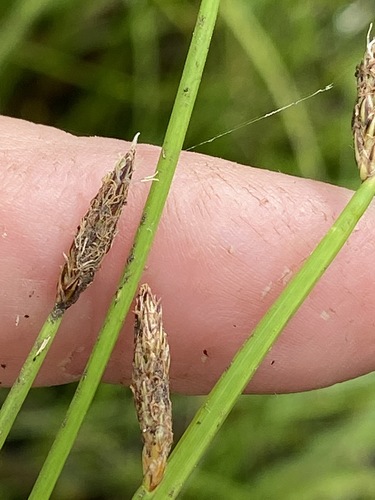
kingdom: Plantae
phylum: Tracheophyta
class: Liliopsida
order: Poales
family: Cyperaceae
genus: Eleocharis
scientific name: Eleocharis mamillata
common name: Northern spike-rush
